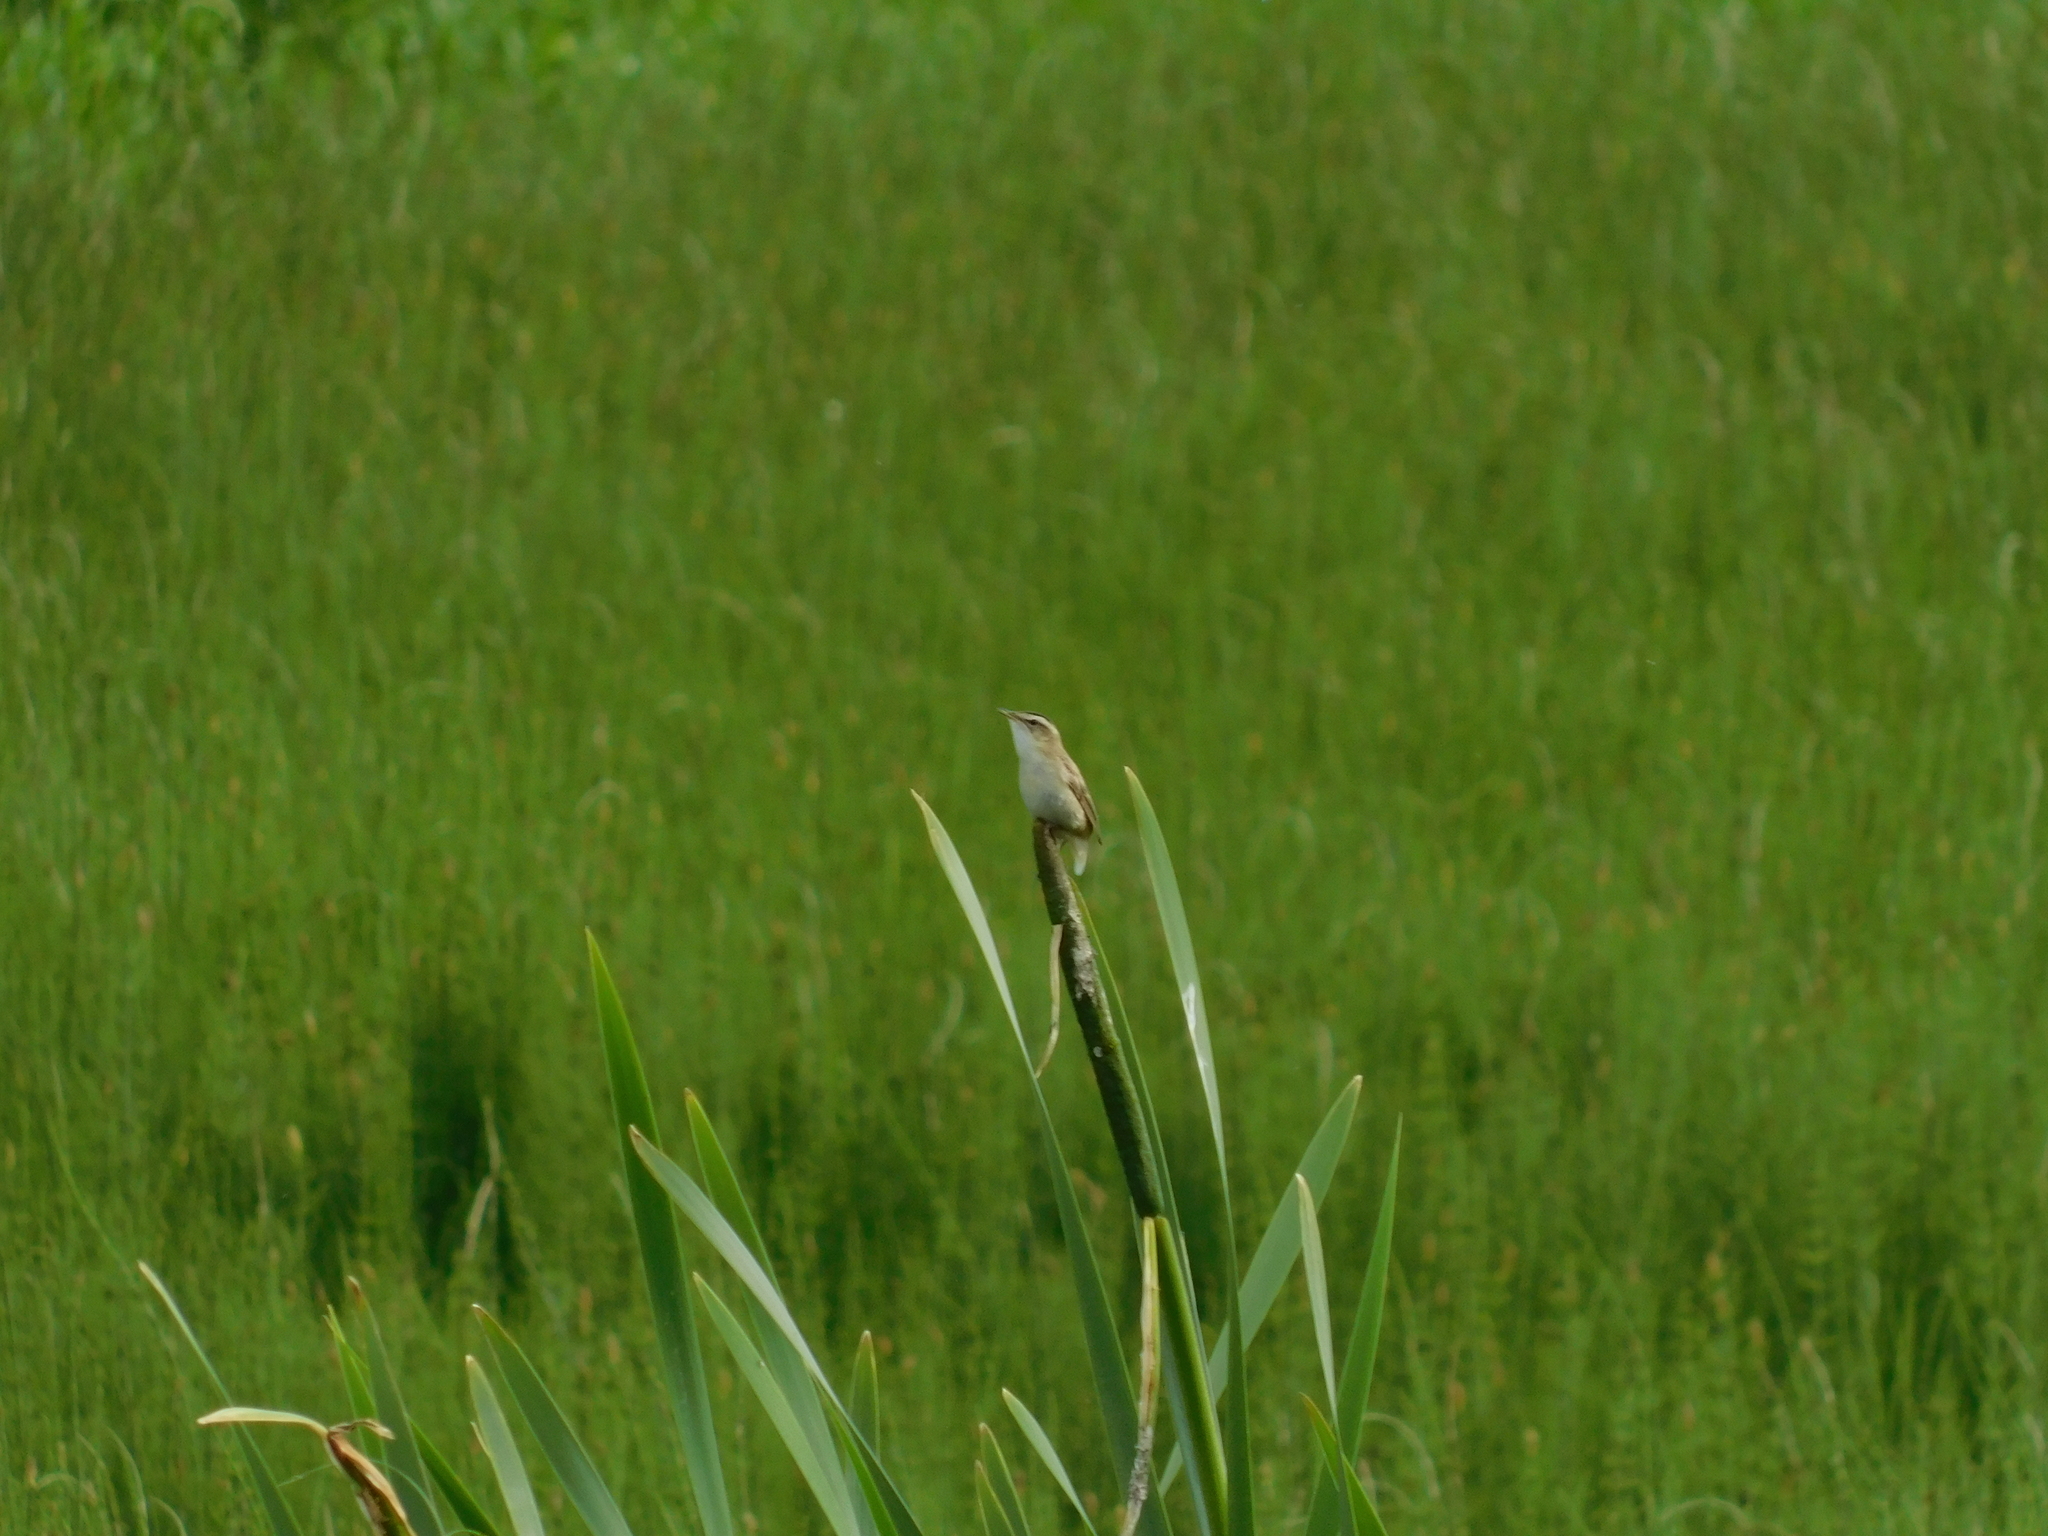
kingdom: Animalia
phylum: Chordata
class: Aves
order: Passeriformes
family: Acrocephalidae
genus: Acrocephalus
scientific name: Acrocephalus schoenobaenus
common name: Sedge warbler
